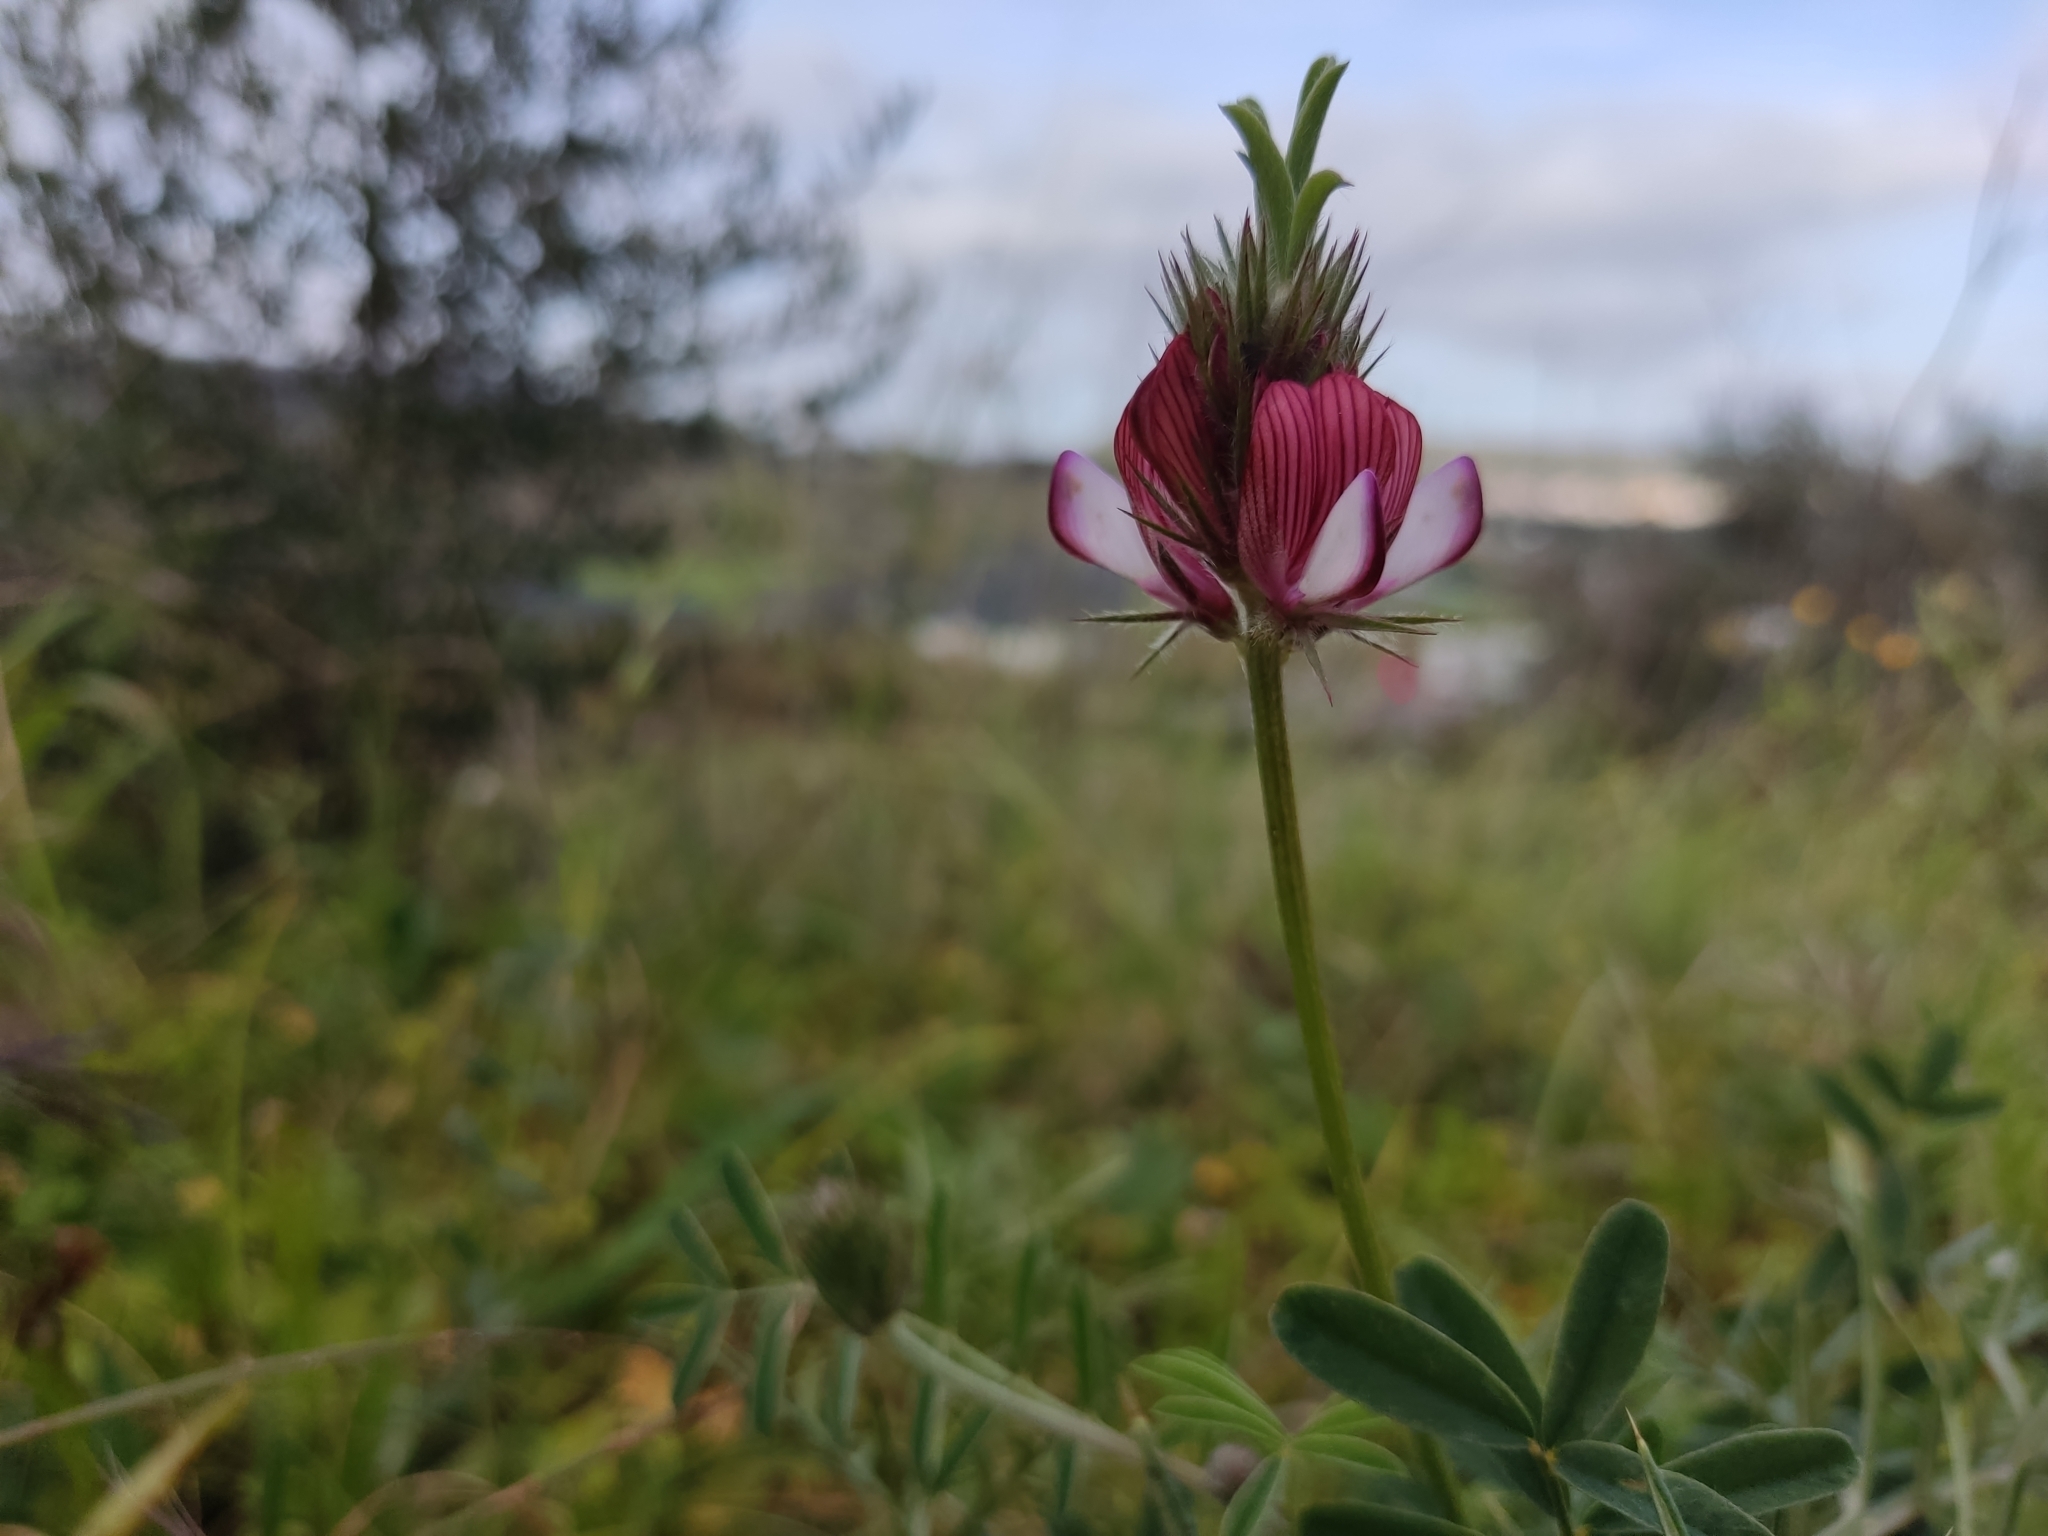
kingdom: Plantae
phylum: Tracheophyta
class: Magnoliopsida
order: Fabales
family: Fabaceae
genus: Onobrychis
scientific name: Onobrychis humilis
